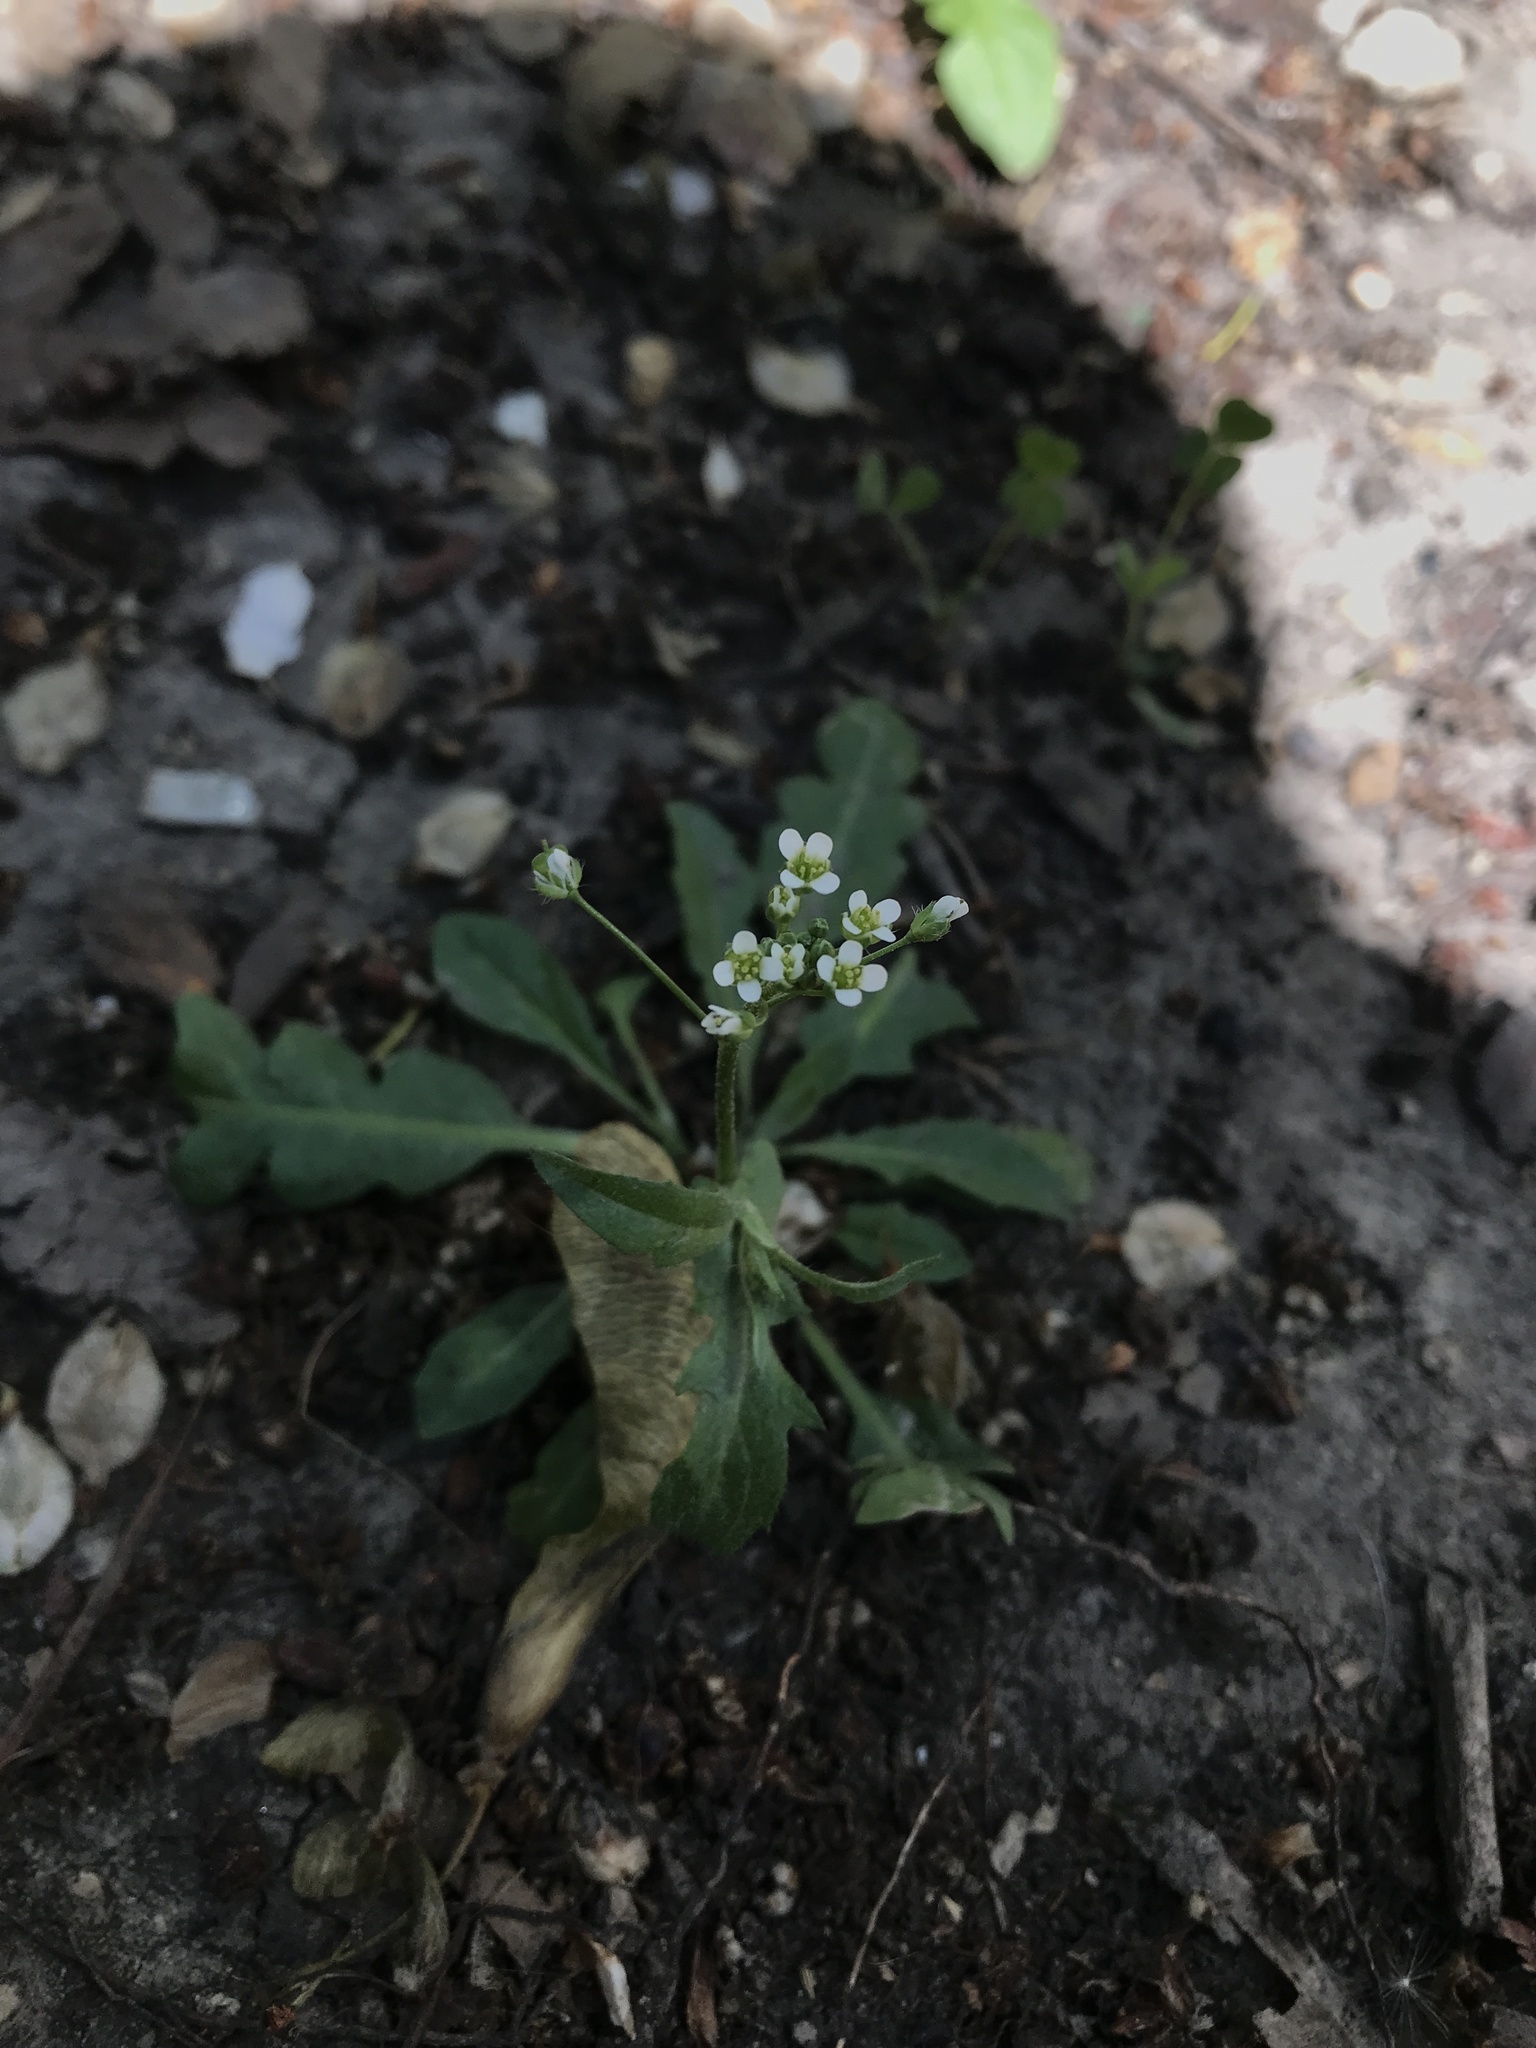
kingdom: Plantae
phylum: Tracheophyta
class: Magnoliopsida
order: Brassicales
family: Brassicaceae
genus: Capsella
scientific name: Capsella bursa-pastoris
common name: Shepherd's purse
